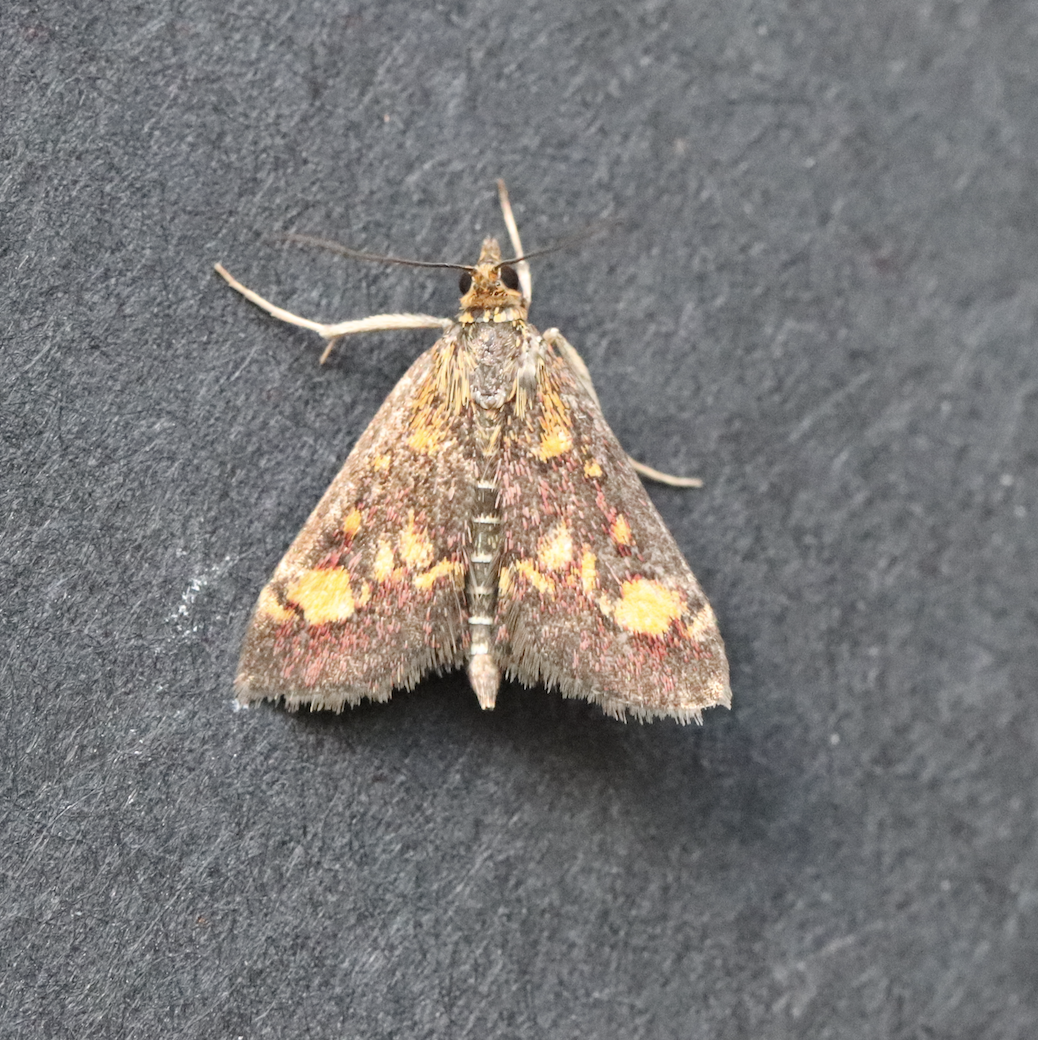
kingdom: Animalia
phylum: Arthropoda
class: Insecta
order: Lepidoptera
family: Crambidae
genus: Pyrausta
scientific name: Pyrausta aurata
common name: Small purple & gold
